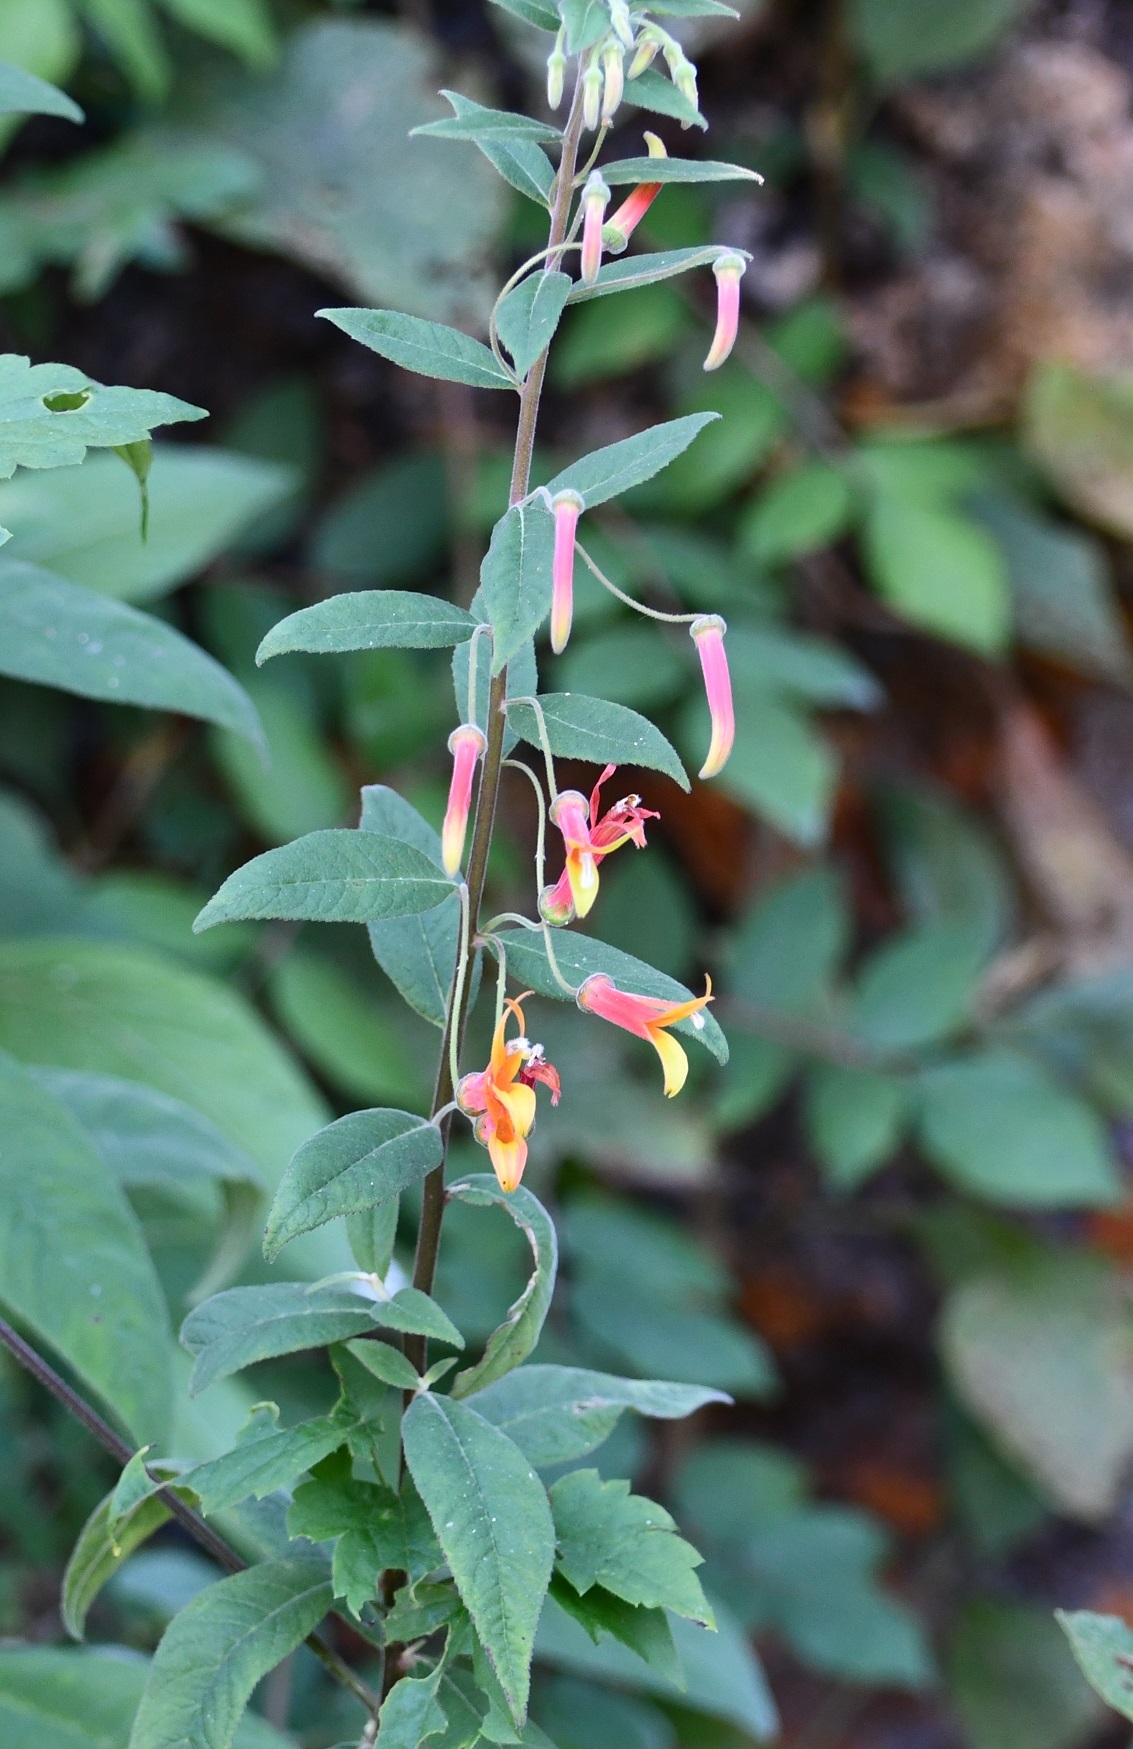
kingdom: Plantae
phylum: Tracheophyta
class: Magnoliopsida
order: Asterales
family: Campanulaceae
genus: Lobelia
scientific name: Lobelia laxiflora
